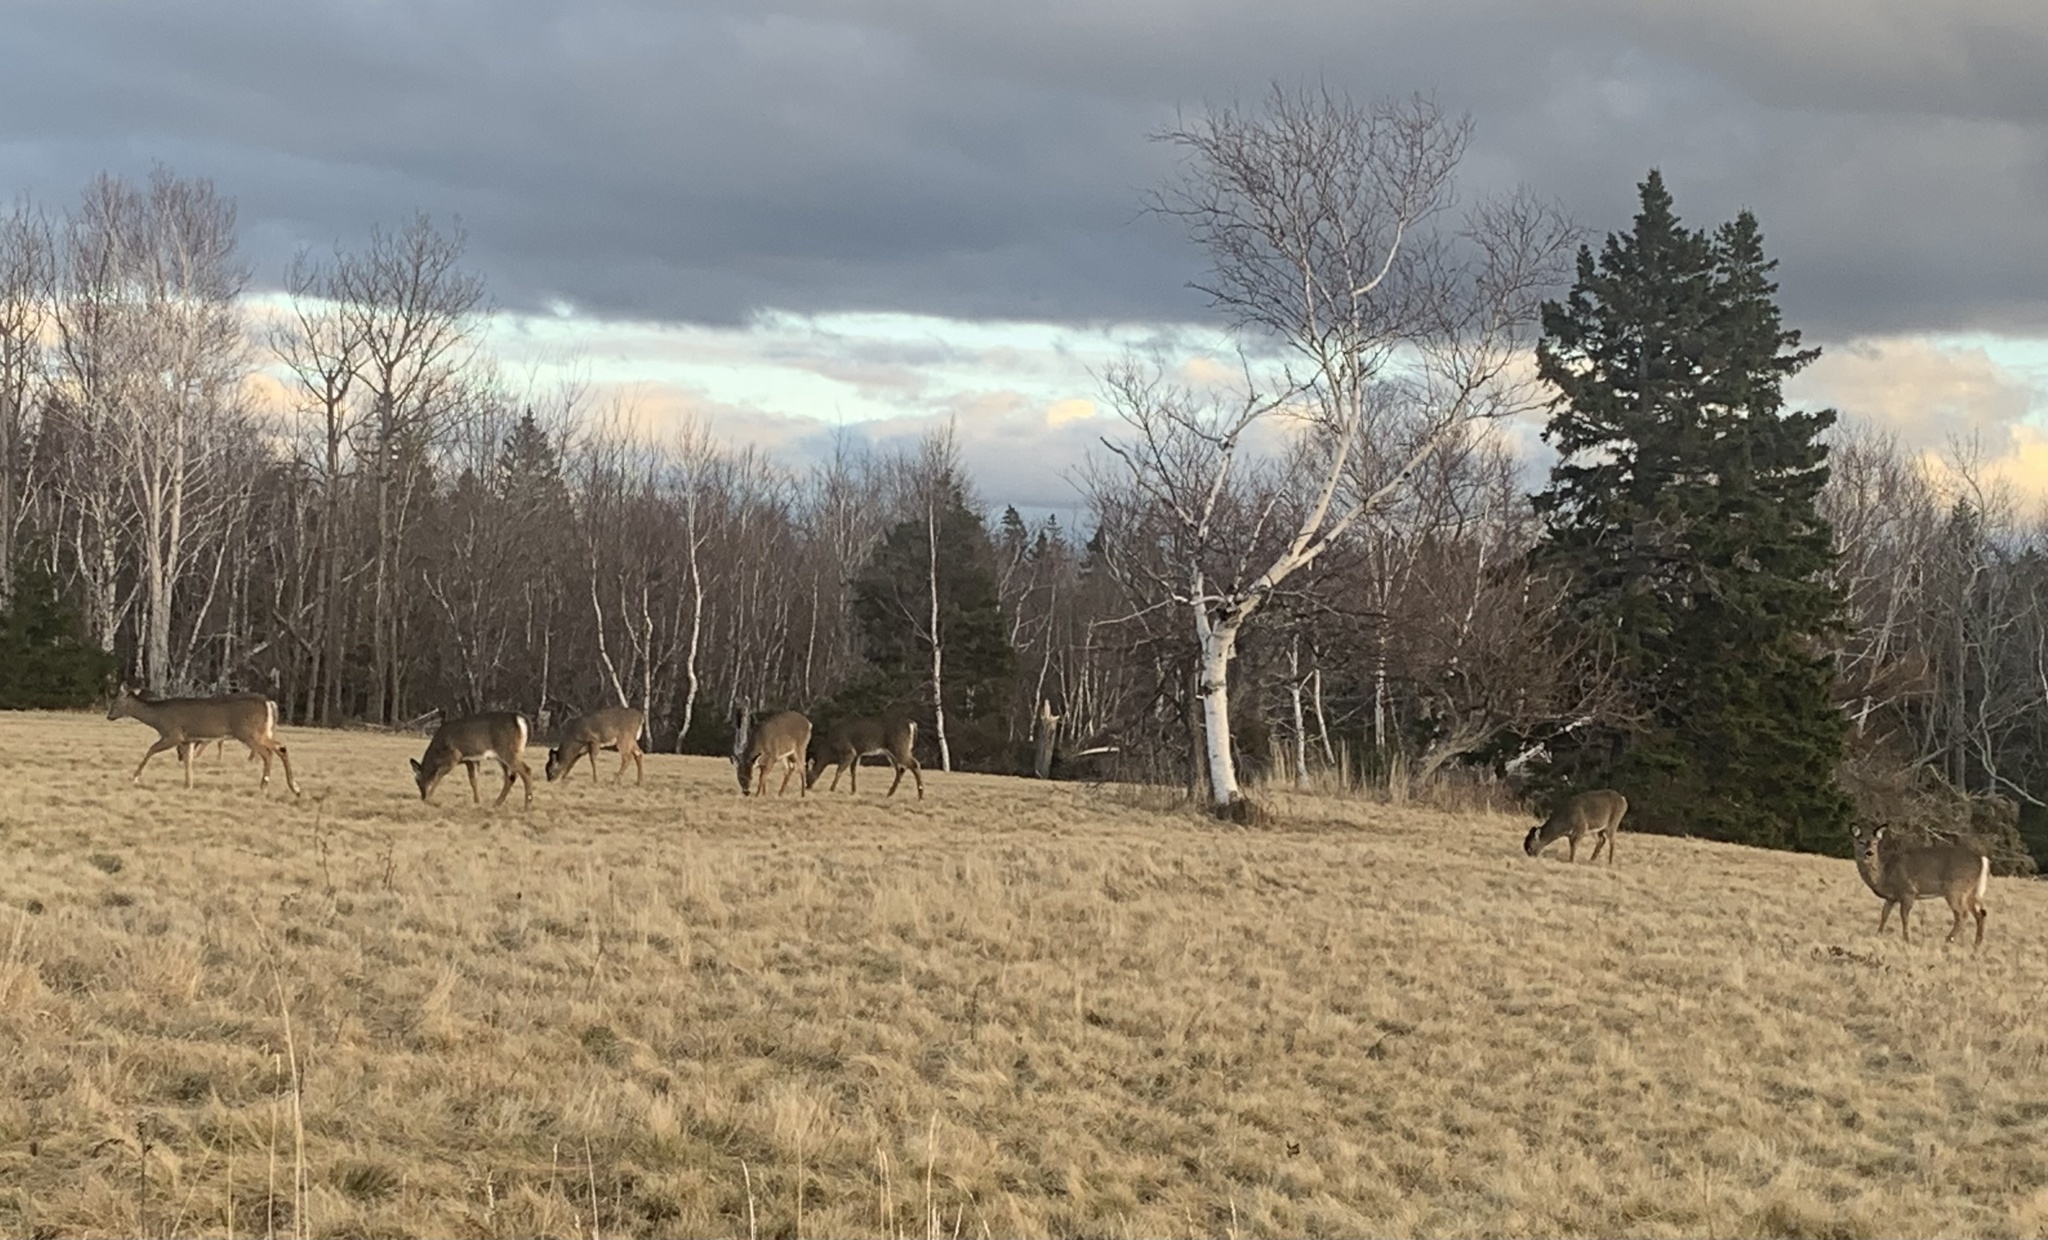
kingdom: Animalia
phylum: Chordata
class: Mammalia
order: Artiodactyla
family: Cervidae
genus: Odocoileus
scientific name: Odocoileus virginianus
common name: White-tailed deer
